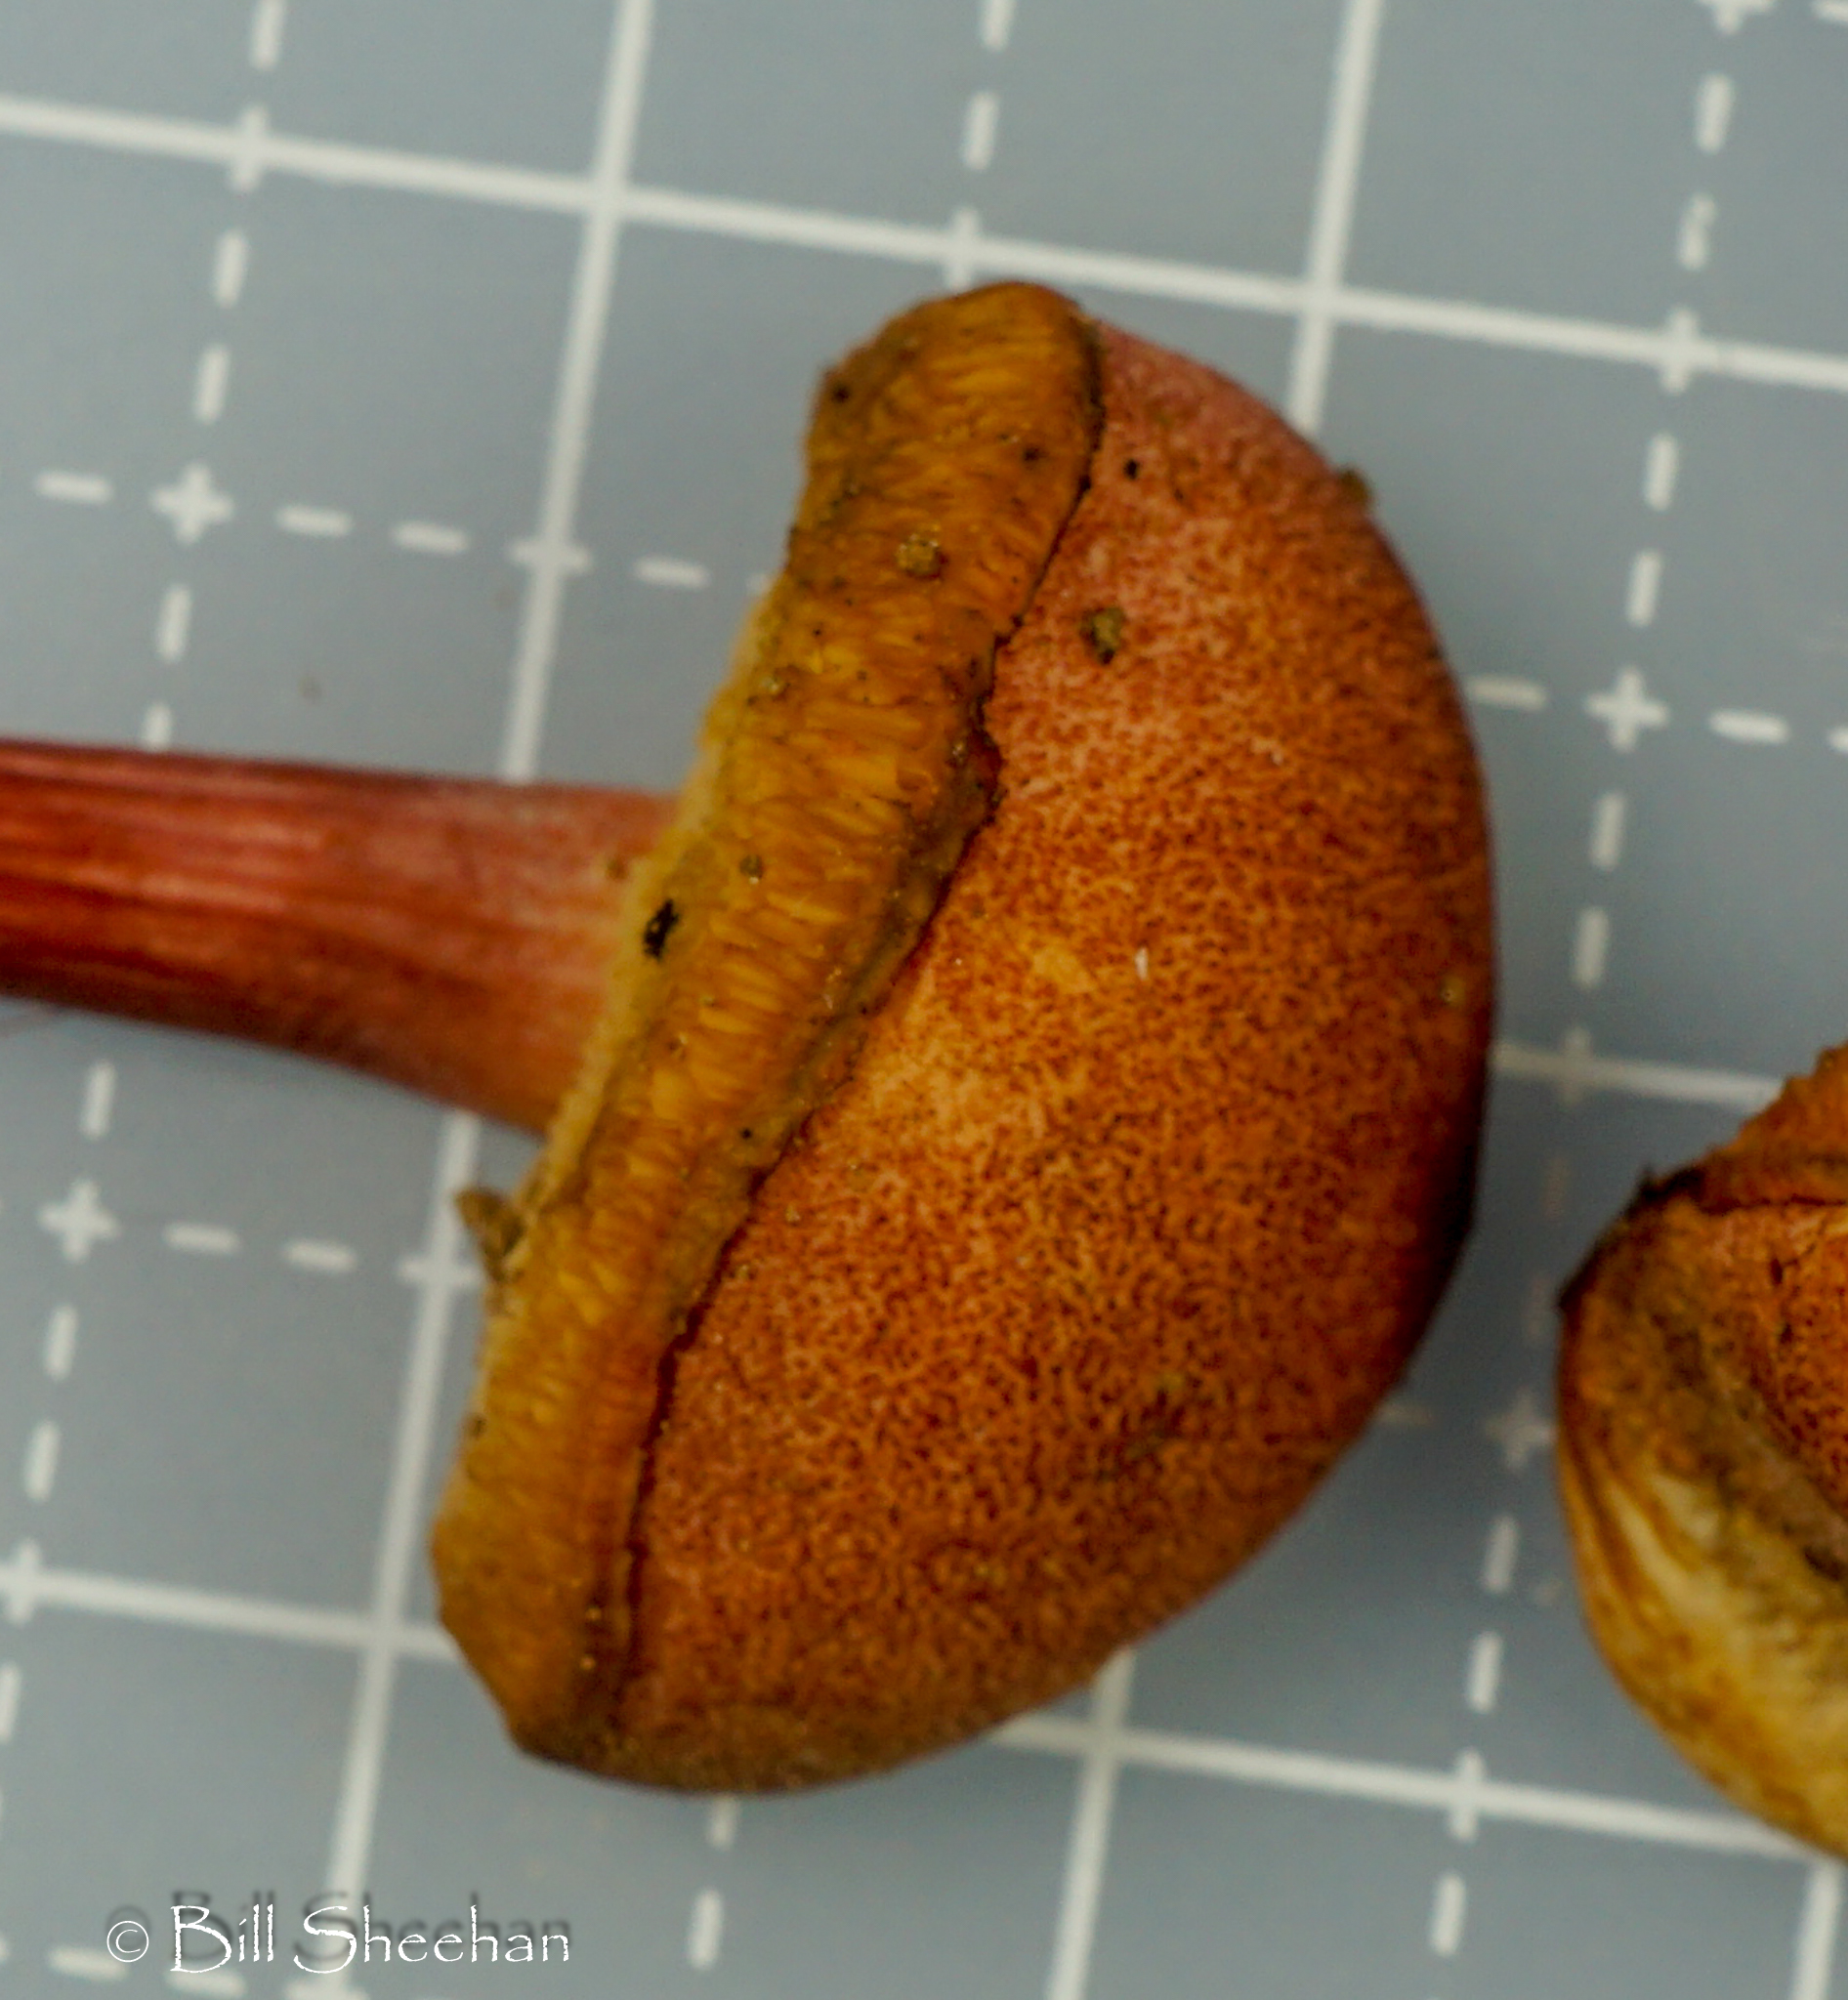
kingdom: Fungi
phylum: Basidiomycota
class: Agaricomycetes
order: Boletales
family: Boletaceae
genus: Hortiboletus
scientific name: Hortiboletus rubellus
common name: Ruby bolete
